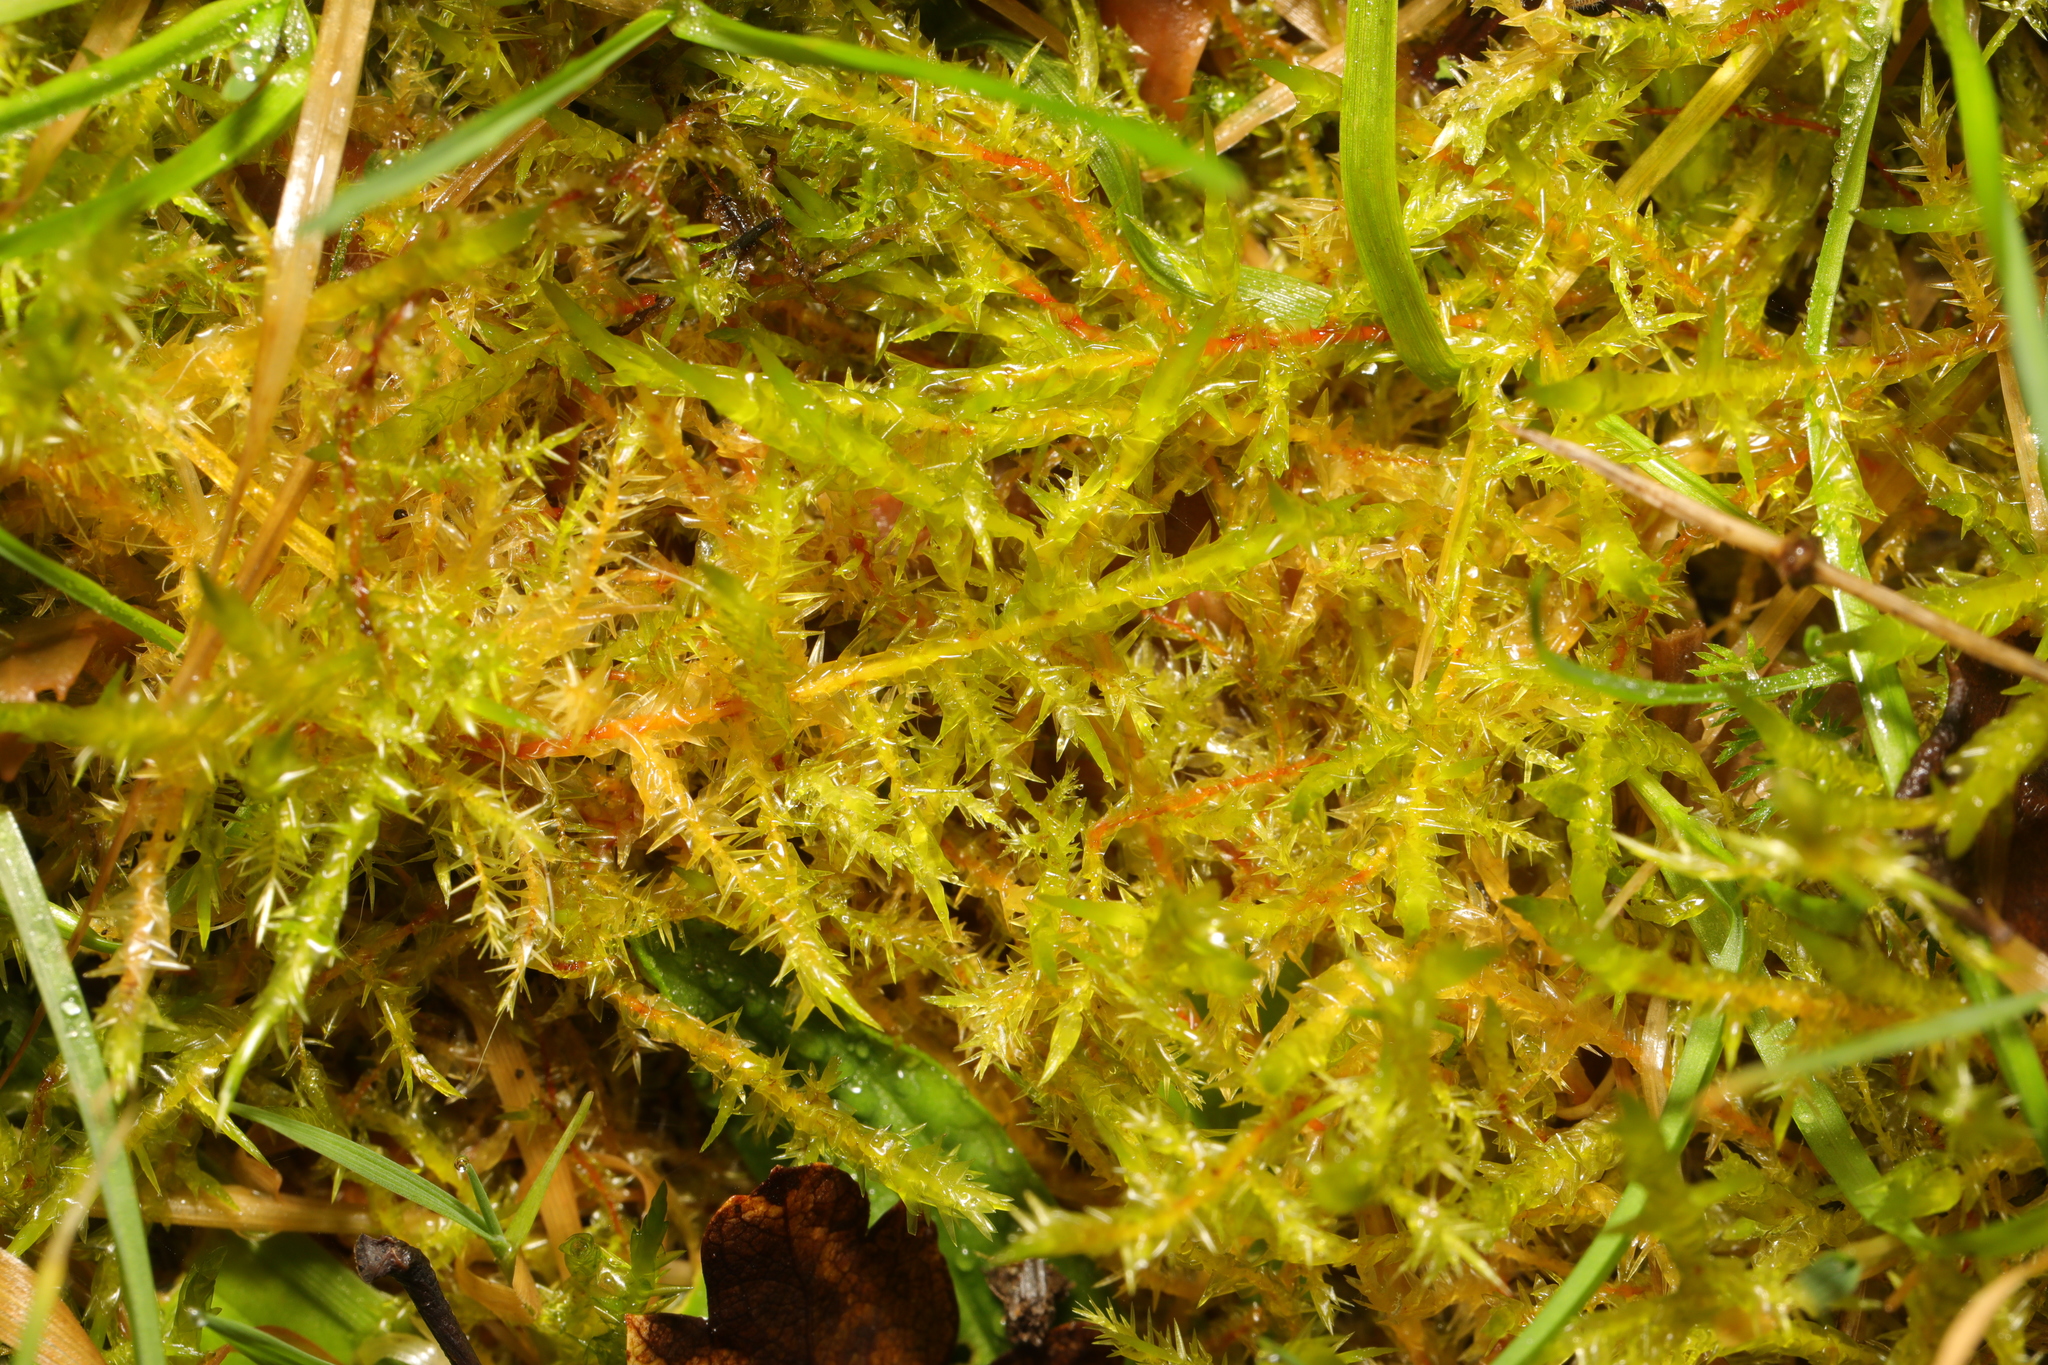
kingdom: Plantae
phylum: Bryophyta
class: Bryopsida
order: Hypnales
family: Pylaisiaceae
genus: Calliergonella
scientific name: Calliergonella cuspidata
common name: Common large wetland moss
